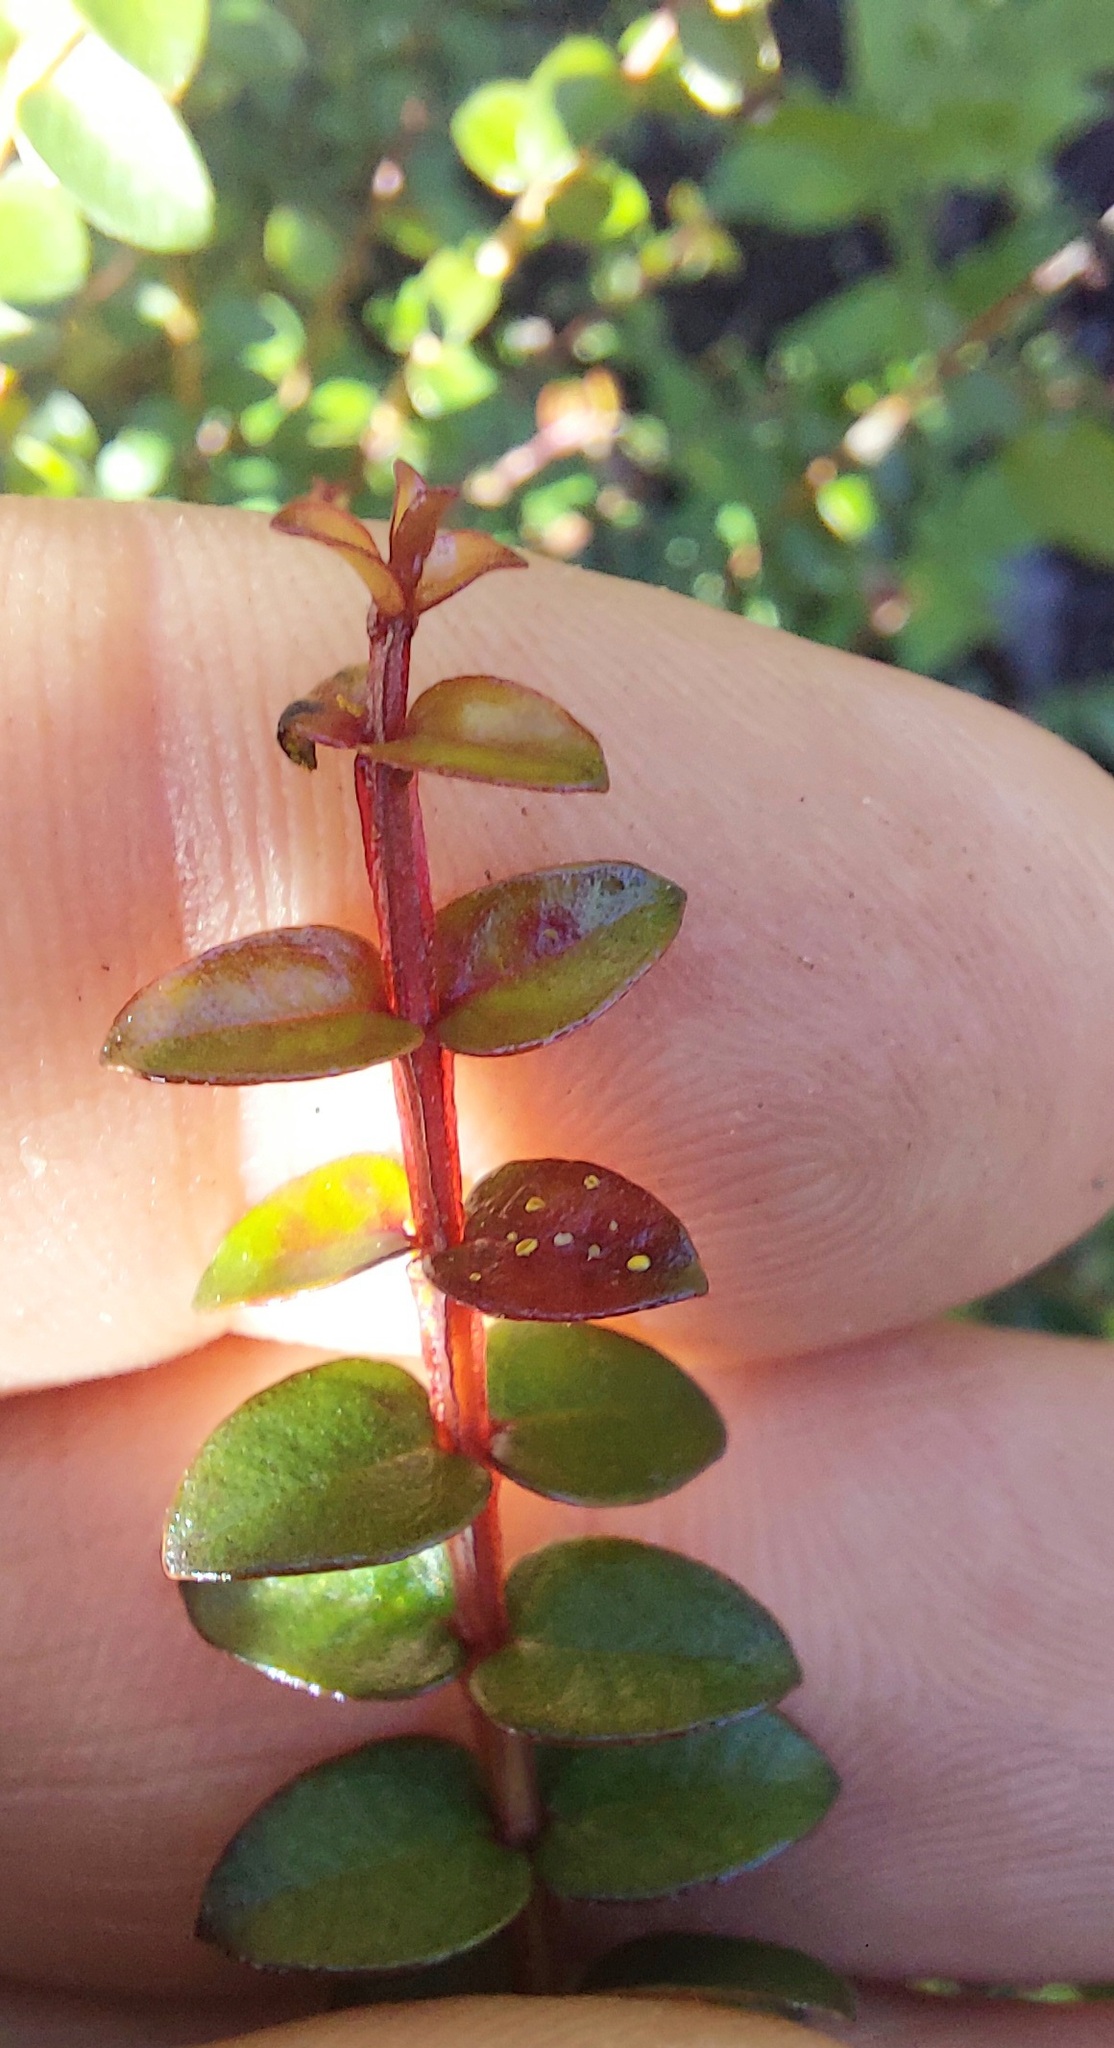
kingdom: Fungi
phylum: Basidiomycota
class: Pucciniomycetes
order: Pucciniales
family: Sphaerophragmiaceae
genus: Austropuccinia
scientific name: Austropuccinia psidii
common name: Myrtle rust
